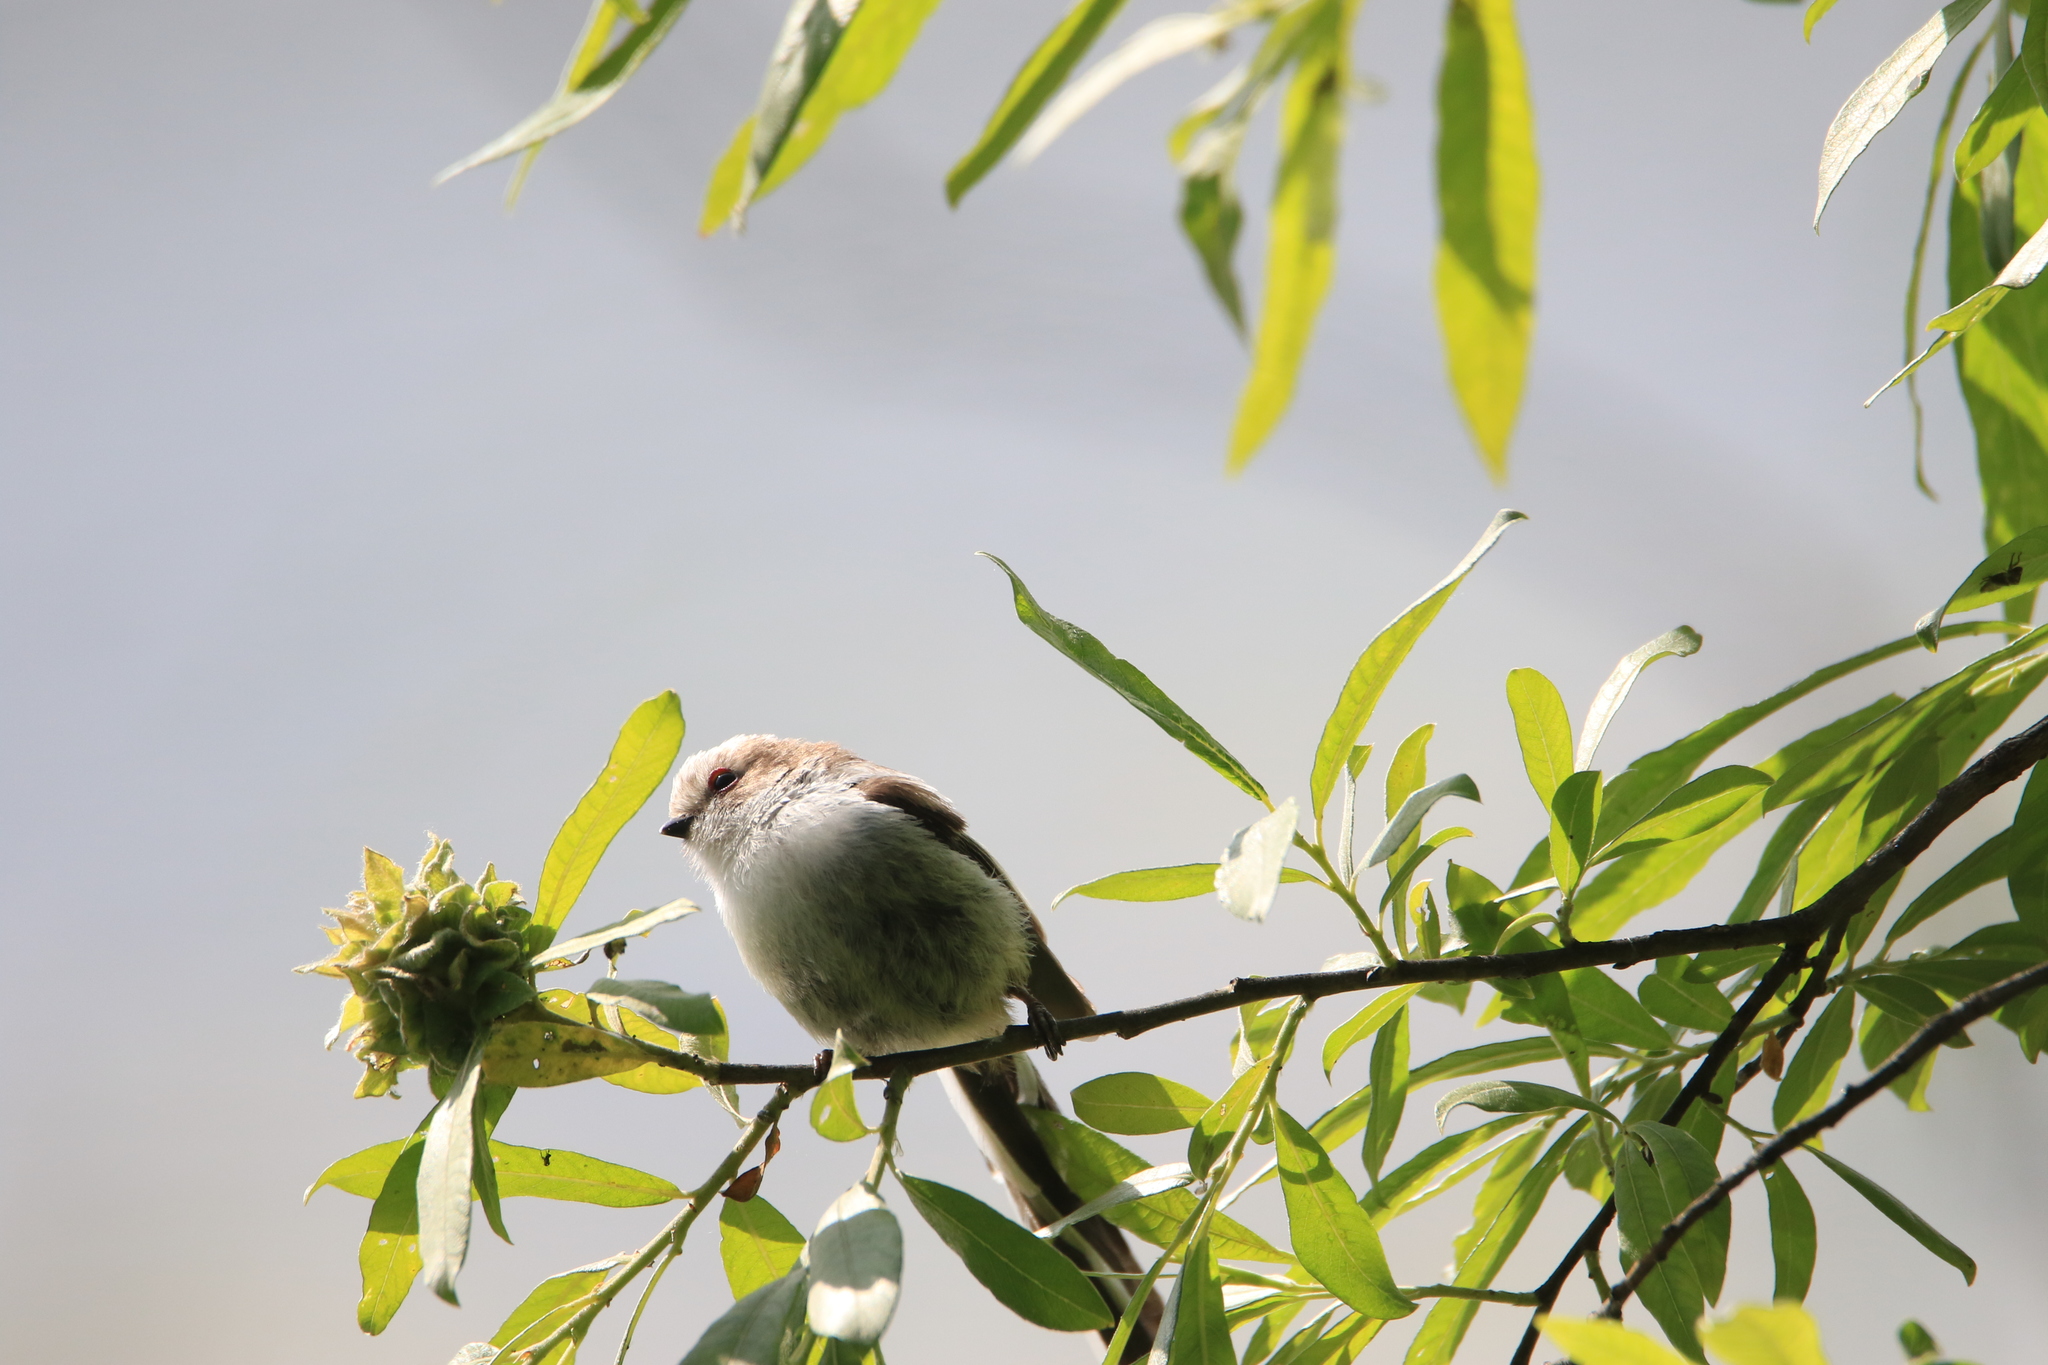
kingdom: Animalia
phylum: Chordata
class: Aves
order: Passeriformes
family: Aegithalidae
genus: Aegithalos
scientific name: Aegithalos caudatus
